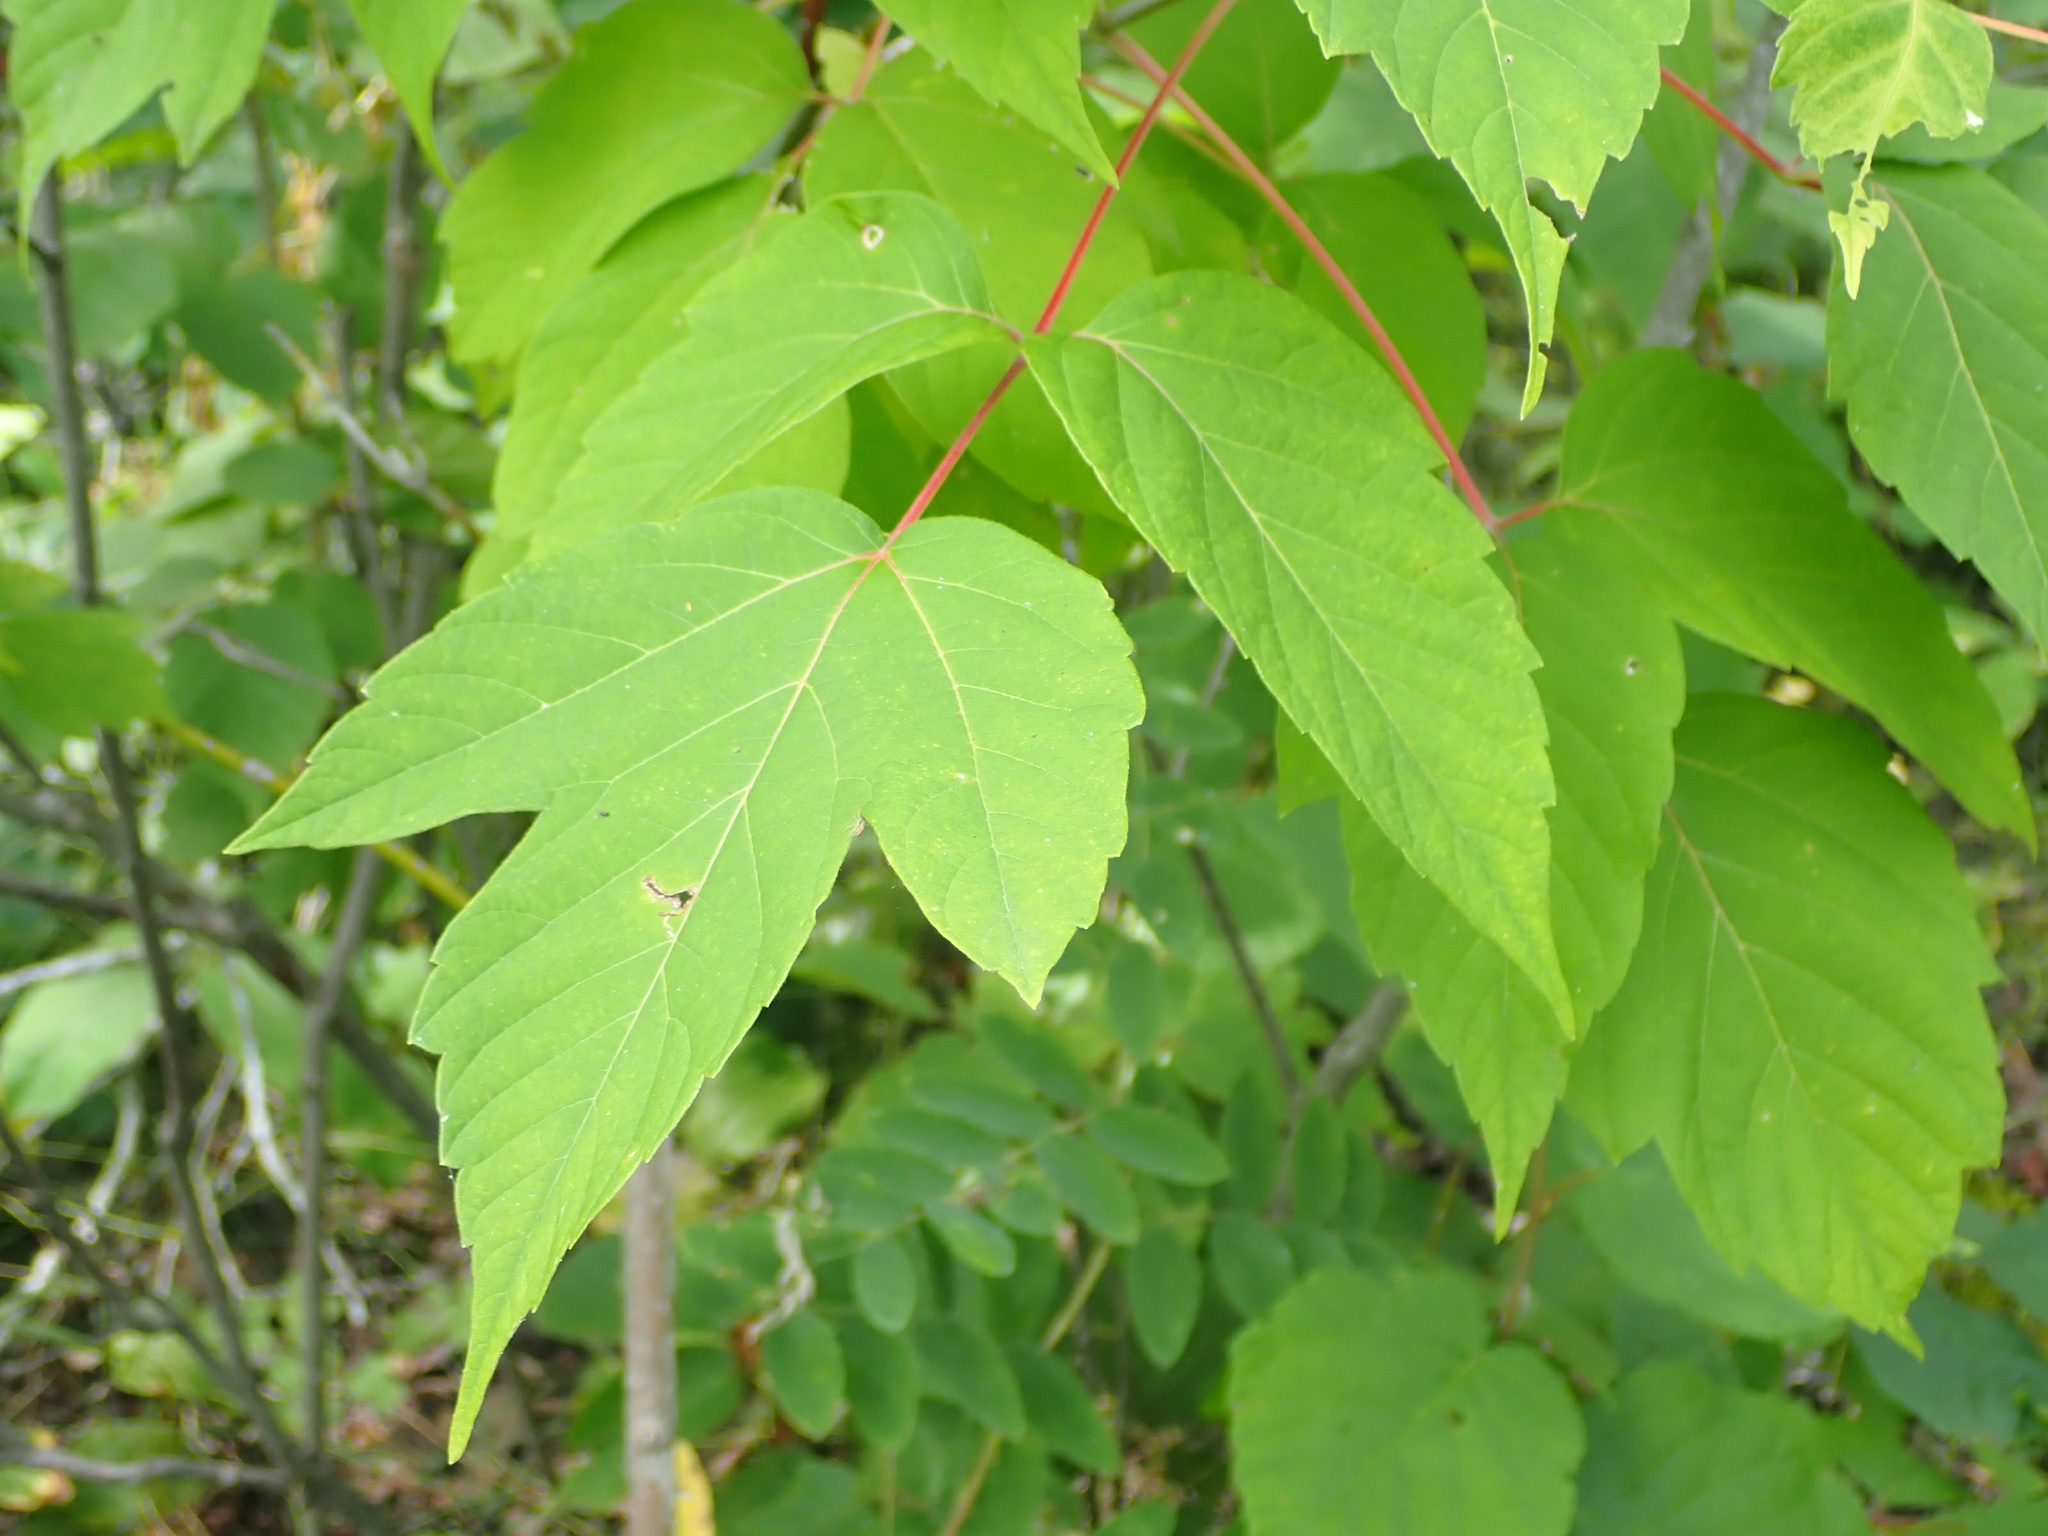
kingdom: Plantae
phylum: Tracheophyta
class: Magnoliopsida
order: Sapindales
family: Sapindaceae
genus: Acer
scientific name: Acer negundo
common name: Ashleaf maple
